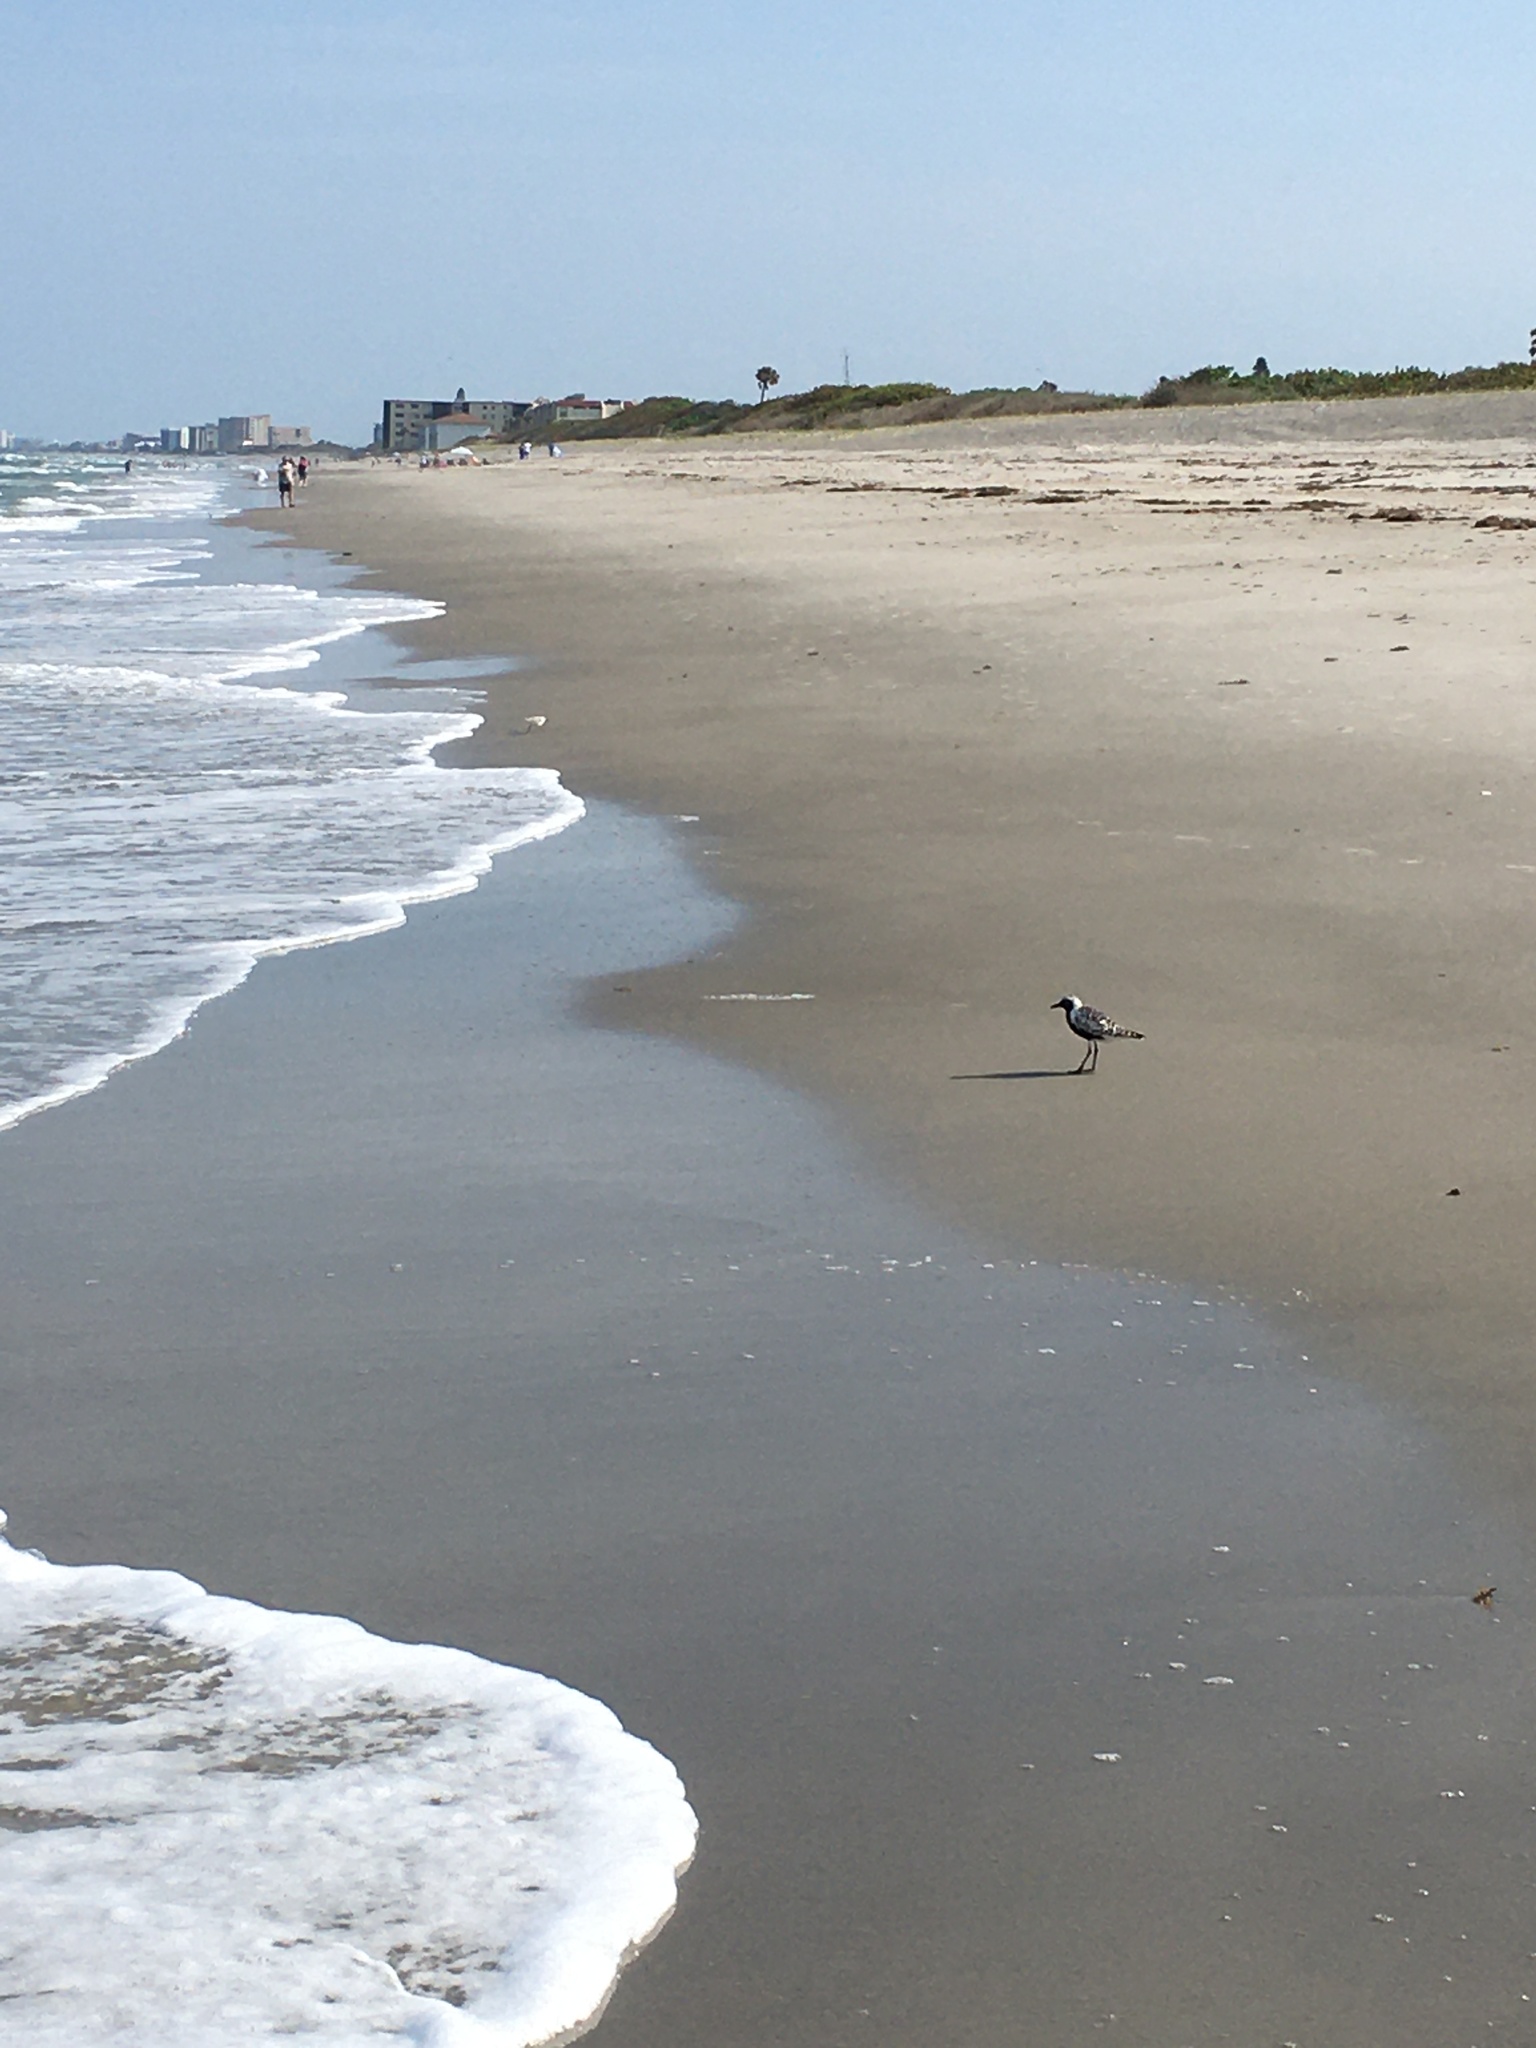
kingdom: Animalia
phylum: Chordata
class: Aves
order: Charadriiformes
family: Charadriidae
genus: Pluvialis
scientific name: Pluvialis squatarola
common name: Grey plover
